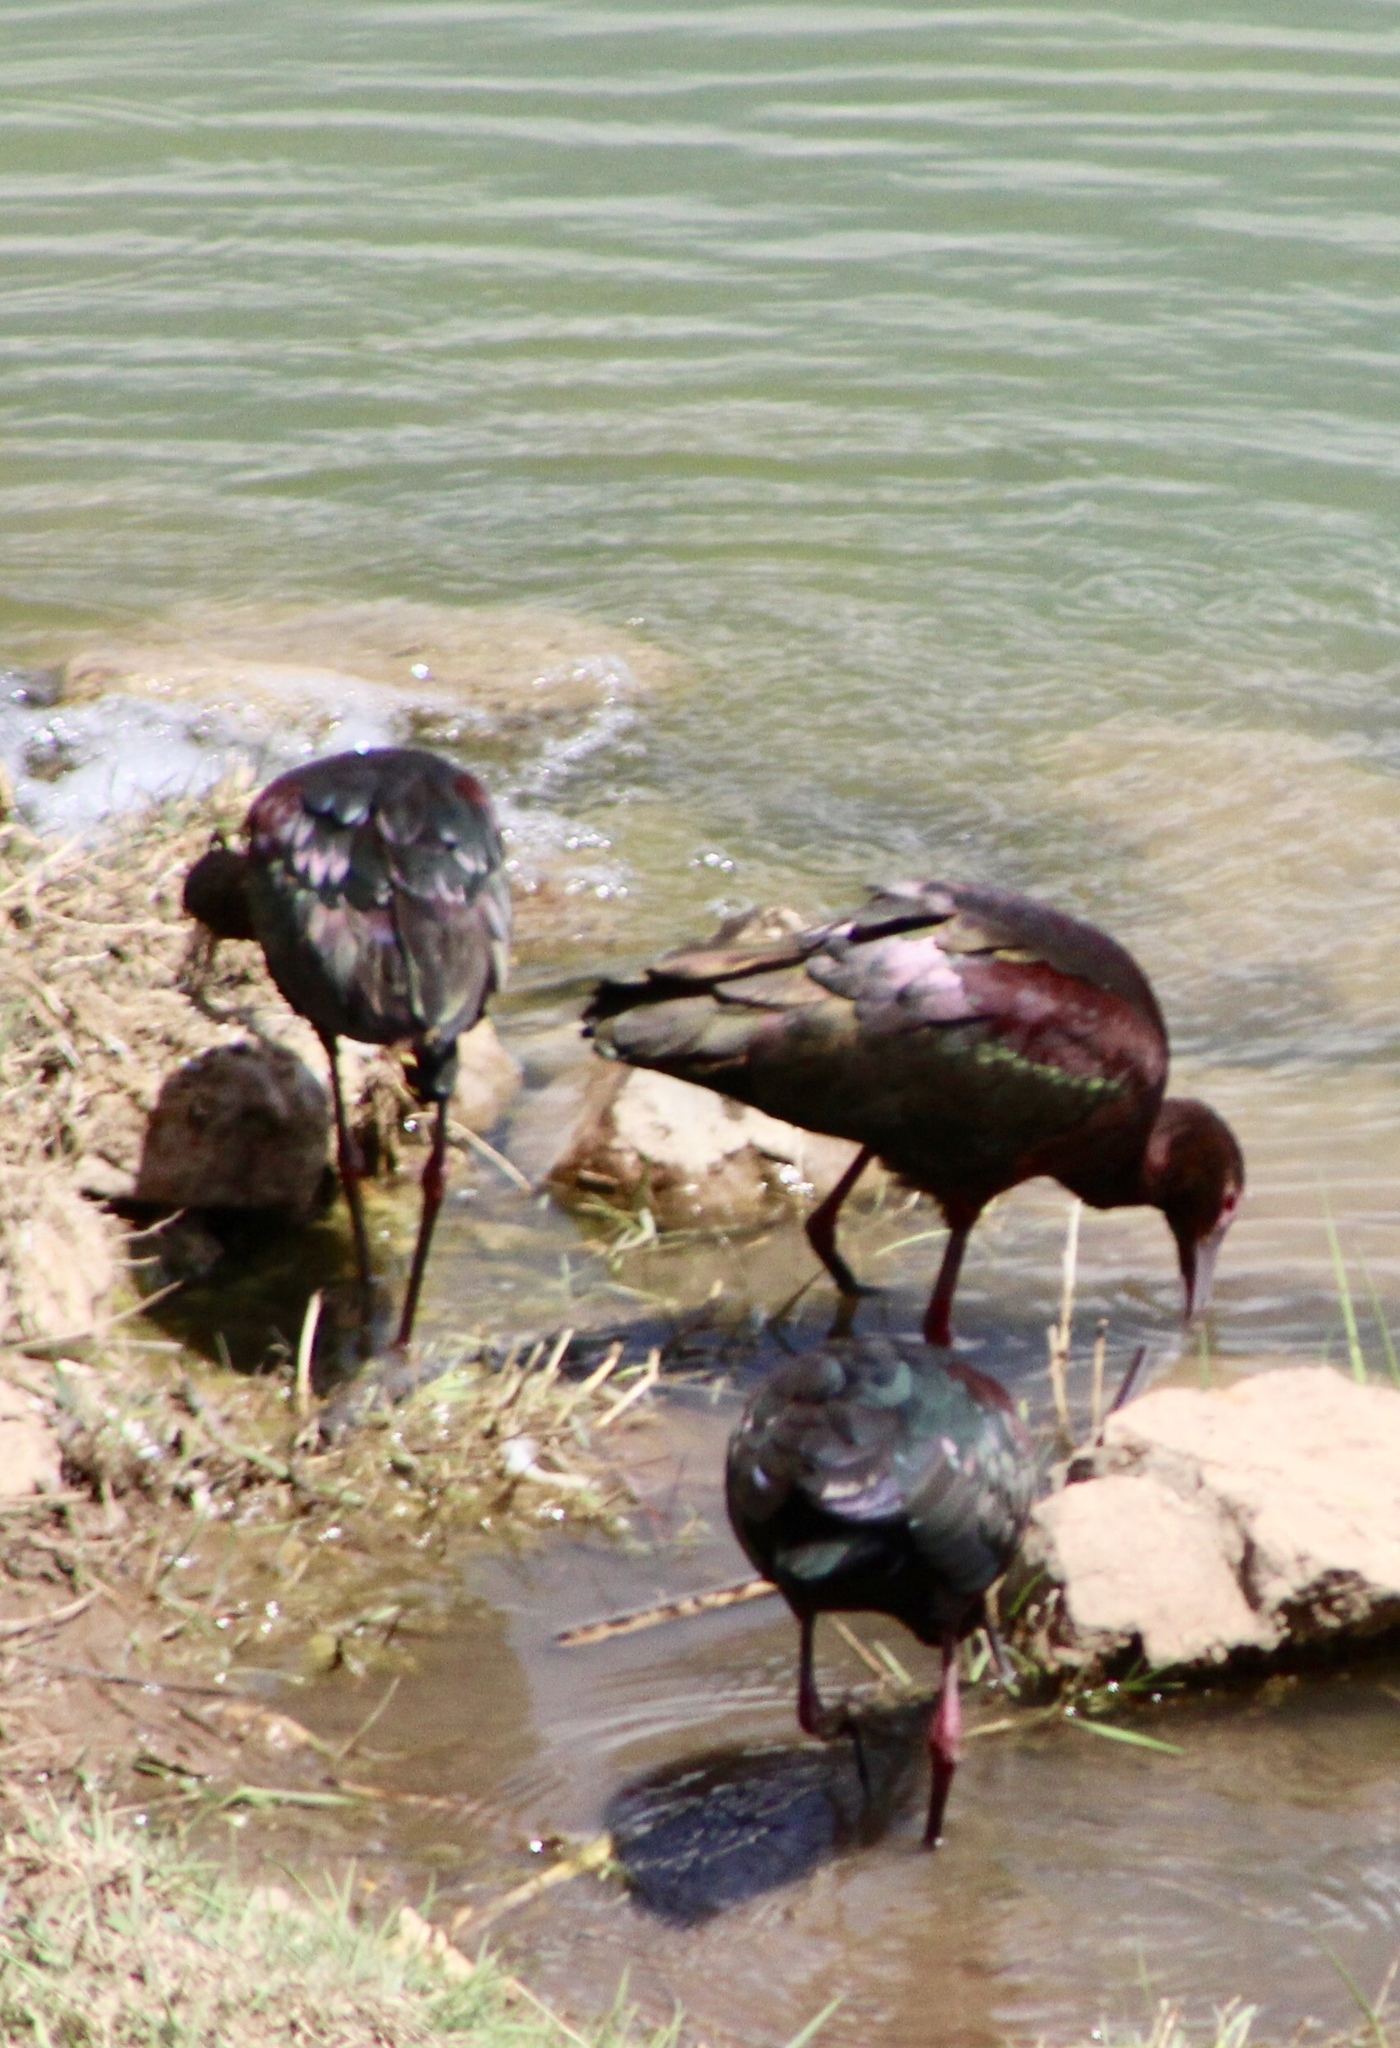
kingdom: Animalia
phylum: Chordata
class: Aves
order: Pelecaniformes
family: Threskiornithidae
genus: Plegadis
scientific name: Plegadis chihi
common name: White-faced ibis
